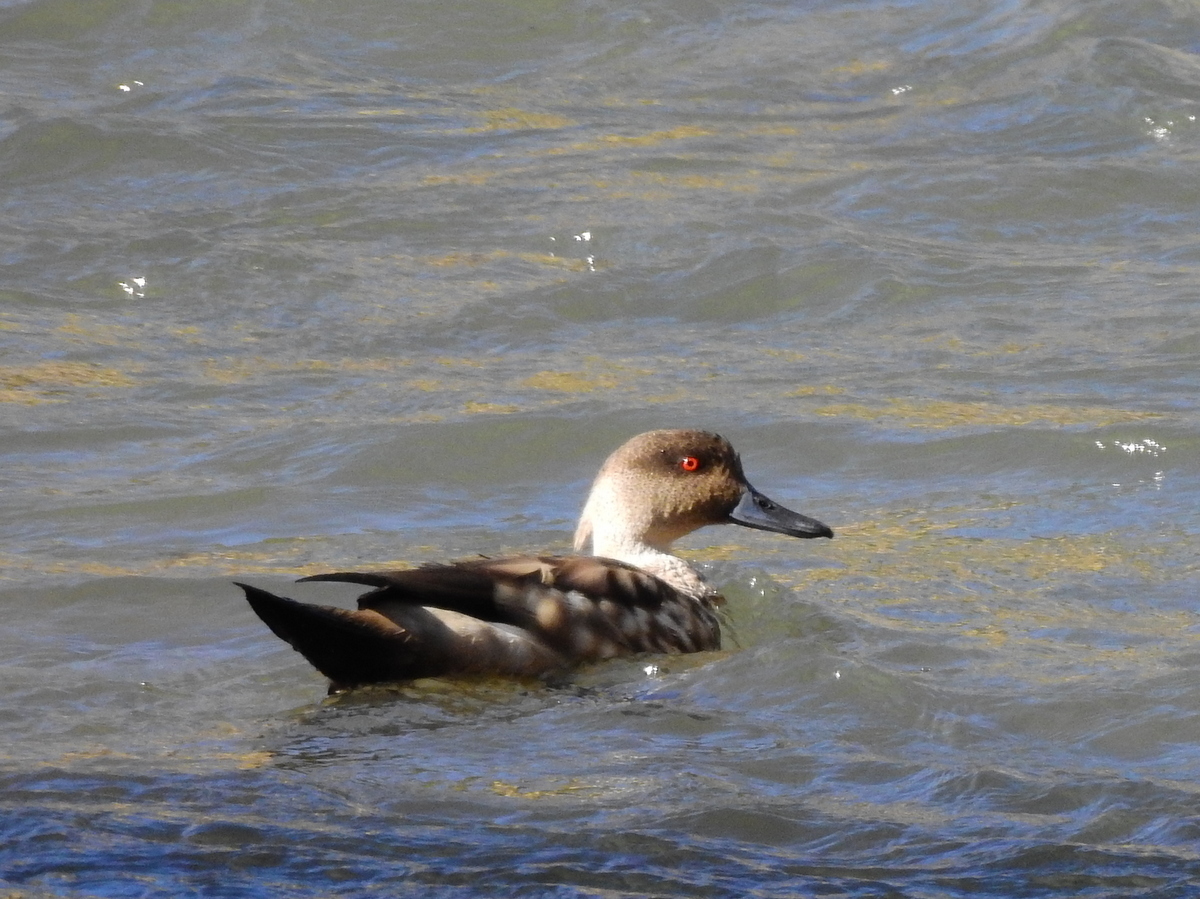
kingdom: Animalia
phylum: Chordata
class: Aves
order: Anseriformes
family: Anatidae
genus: Lophonetta
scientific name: Lophonetta specularioides
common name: Crested duck
